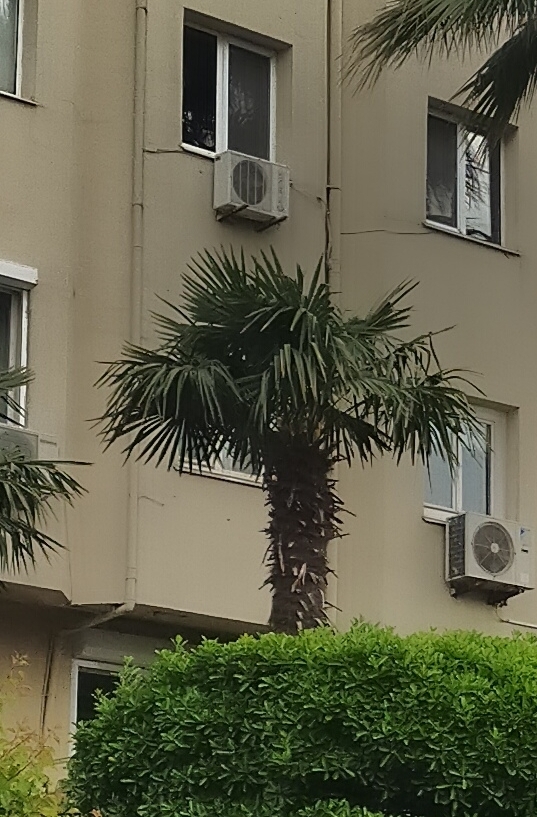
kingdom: Plantae
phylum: Tracheophyta
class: Liliopsida
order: Arecales
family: Arecaceae
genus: Trachycarpus
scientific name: Trachycarpus fortunei
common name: Chusan palm
